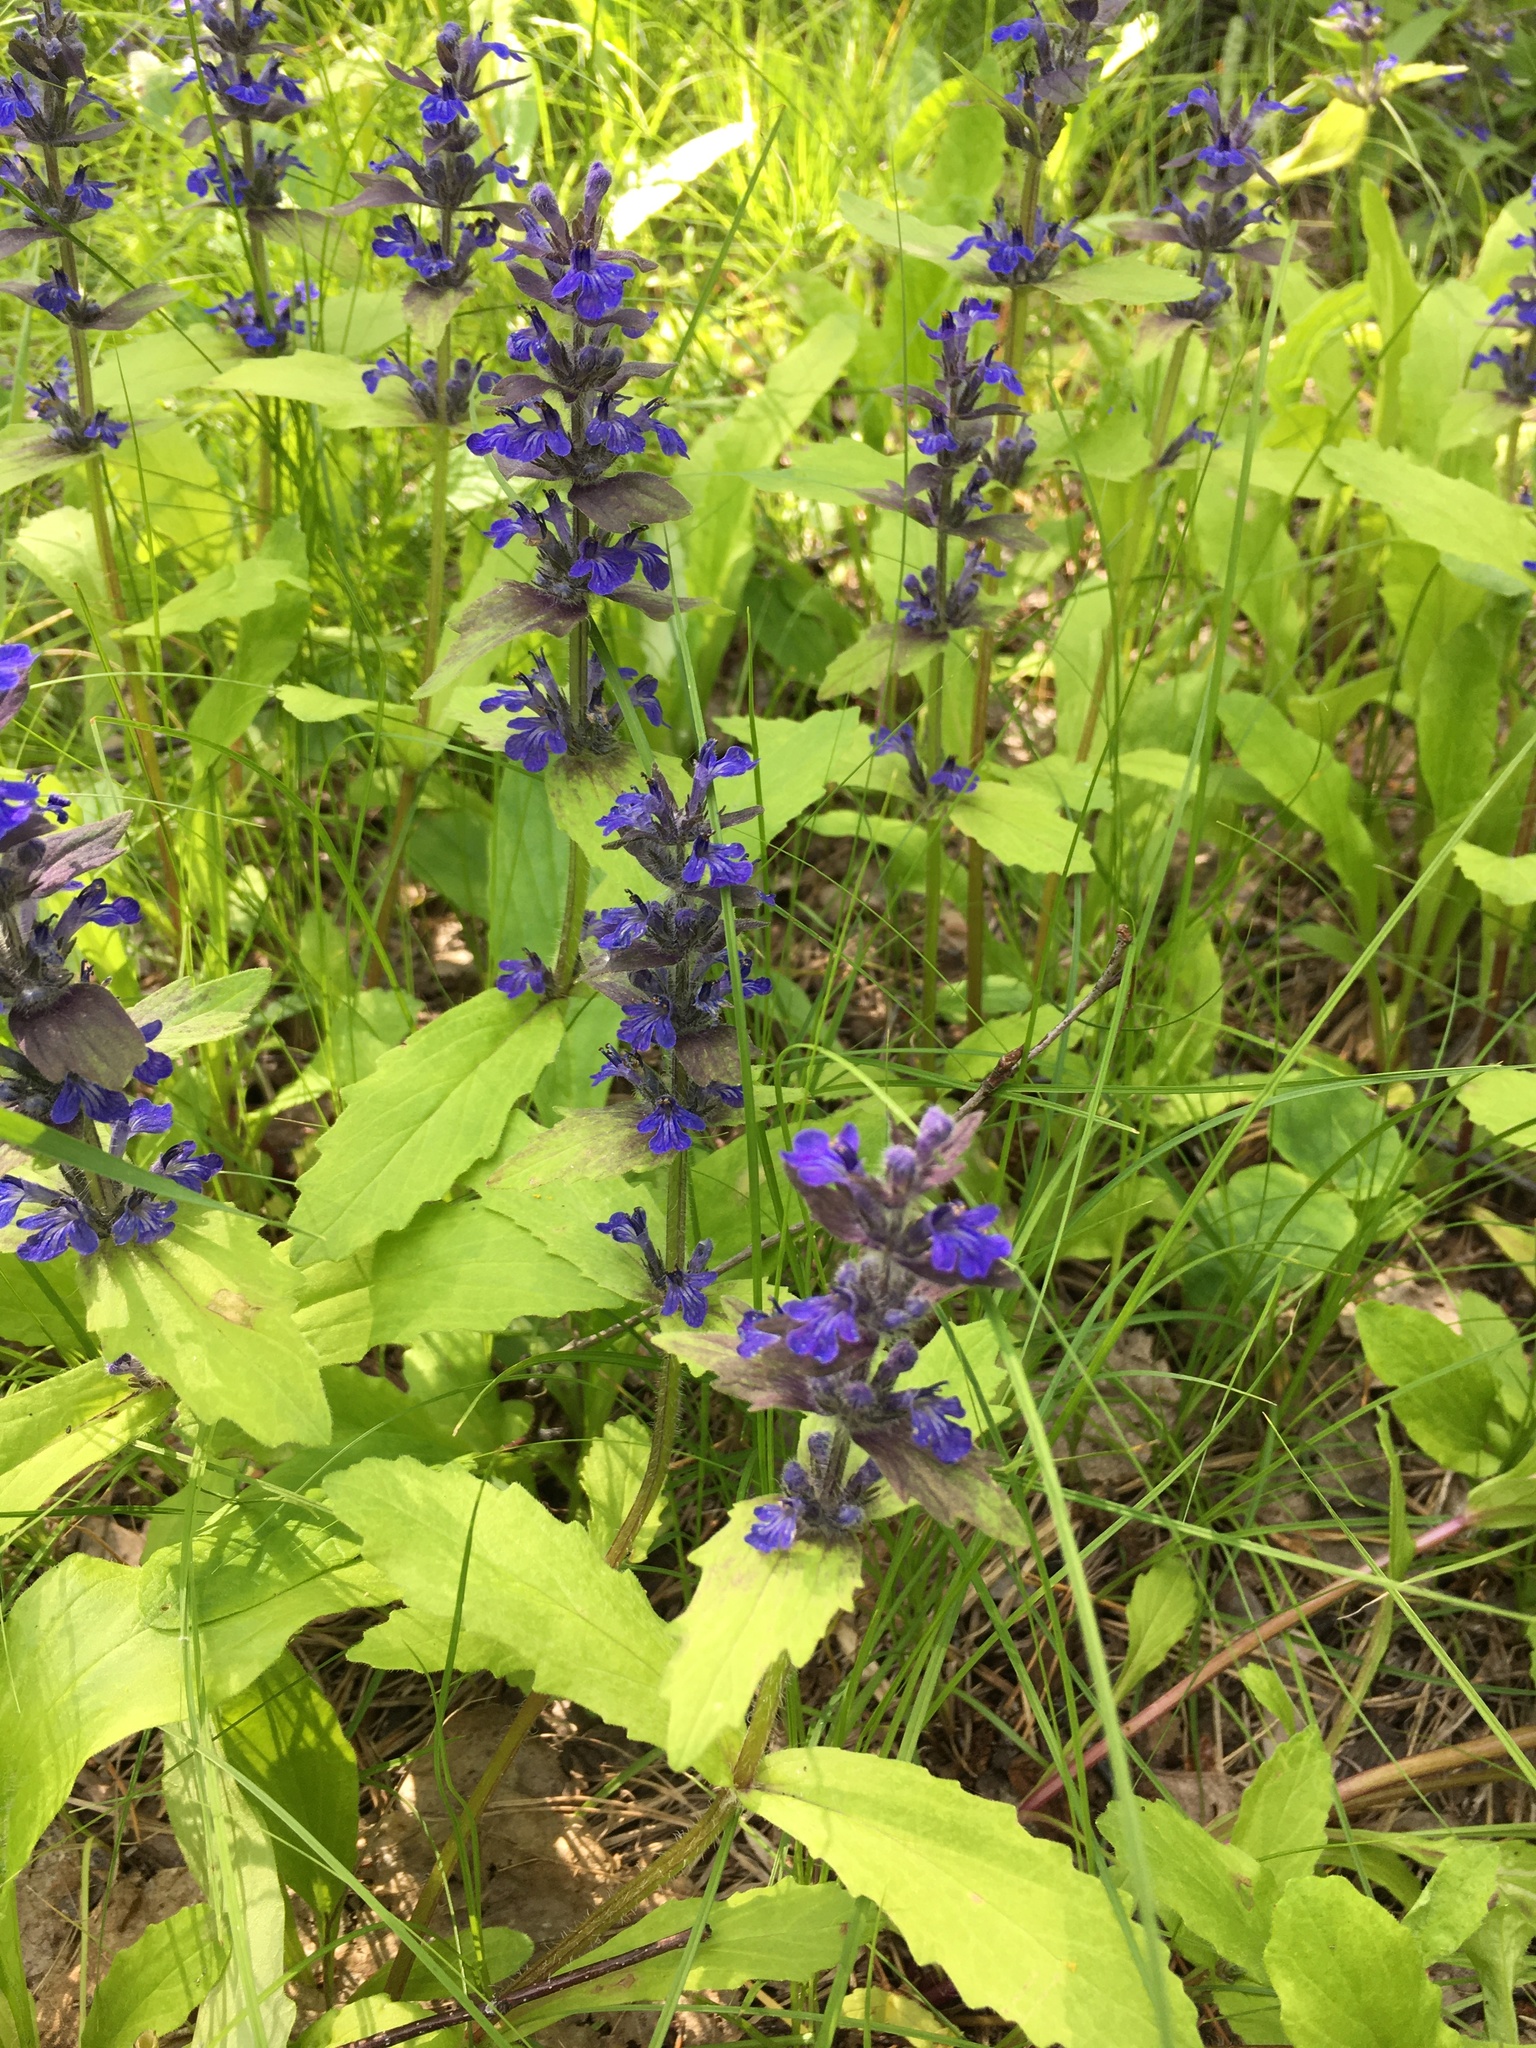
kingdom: Plantae
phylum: Tracheophyta
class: Magnoliopsida
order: Lamiales
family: Lamiaceae
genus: Ajuga
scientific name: Ajuga genevensis
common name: Blue bugle
